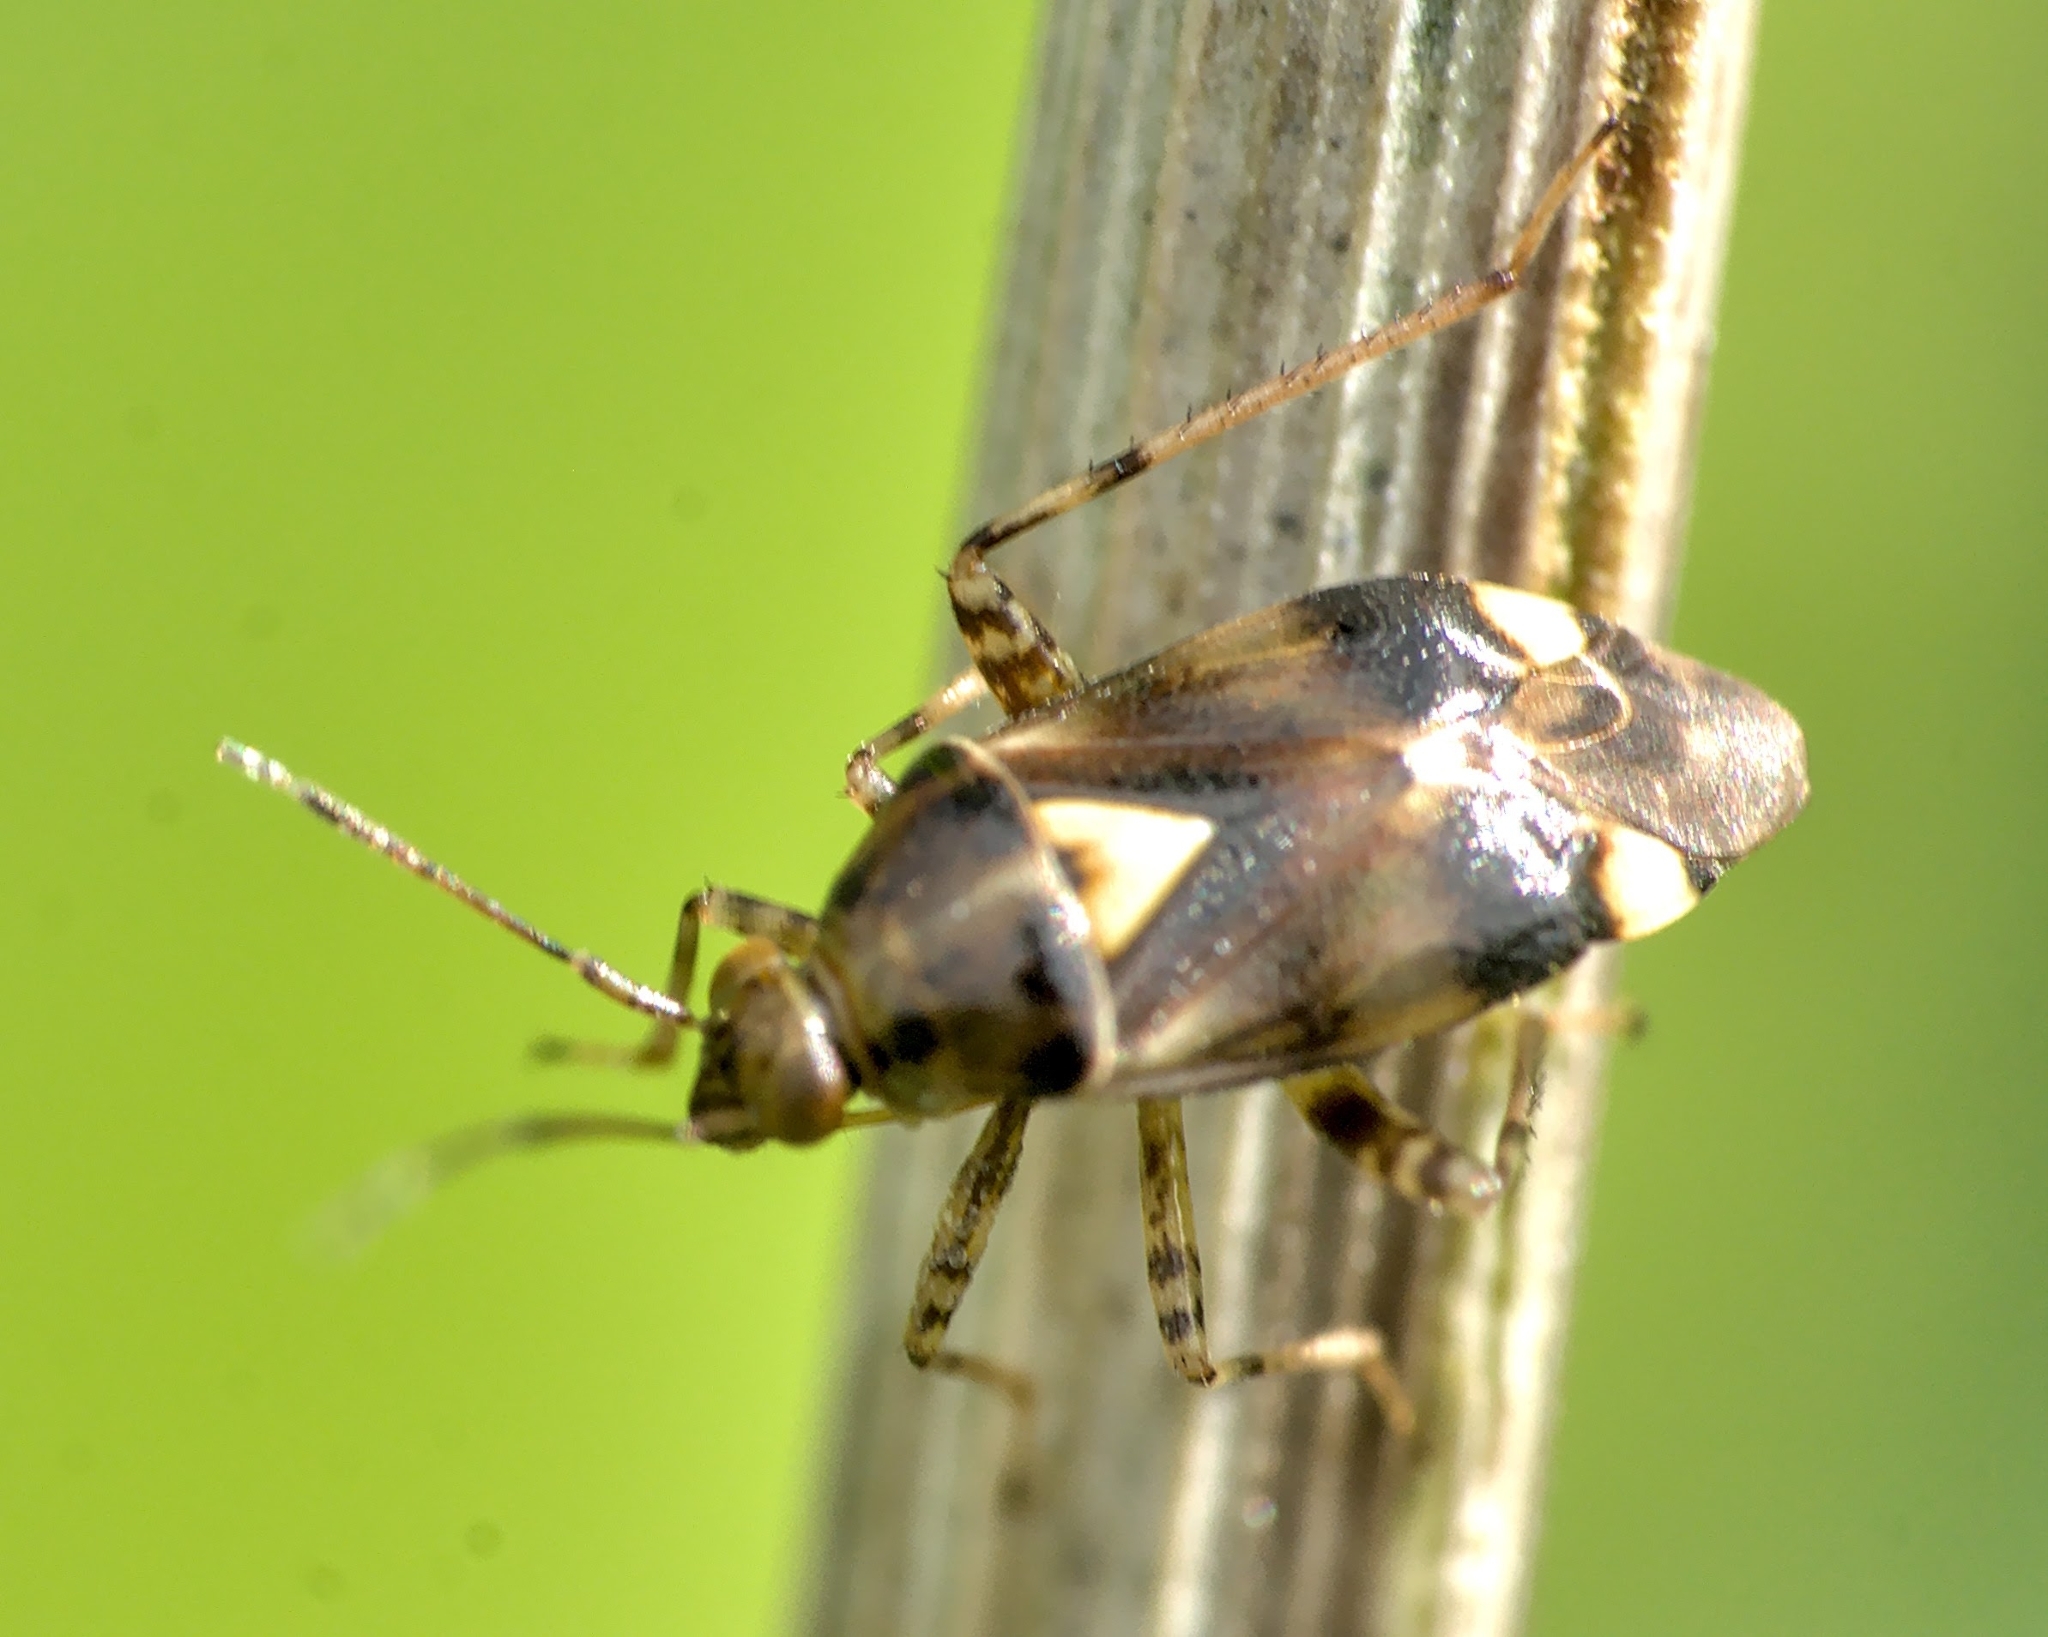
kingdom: Animalia
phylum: Arthropoda
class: Insecta
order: Hemiptera
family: Miridae
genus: Liocoris
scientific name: Liocoris tripustulatus
